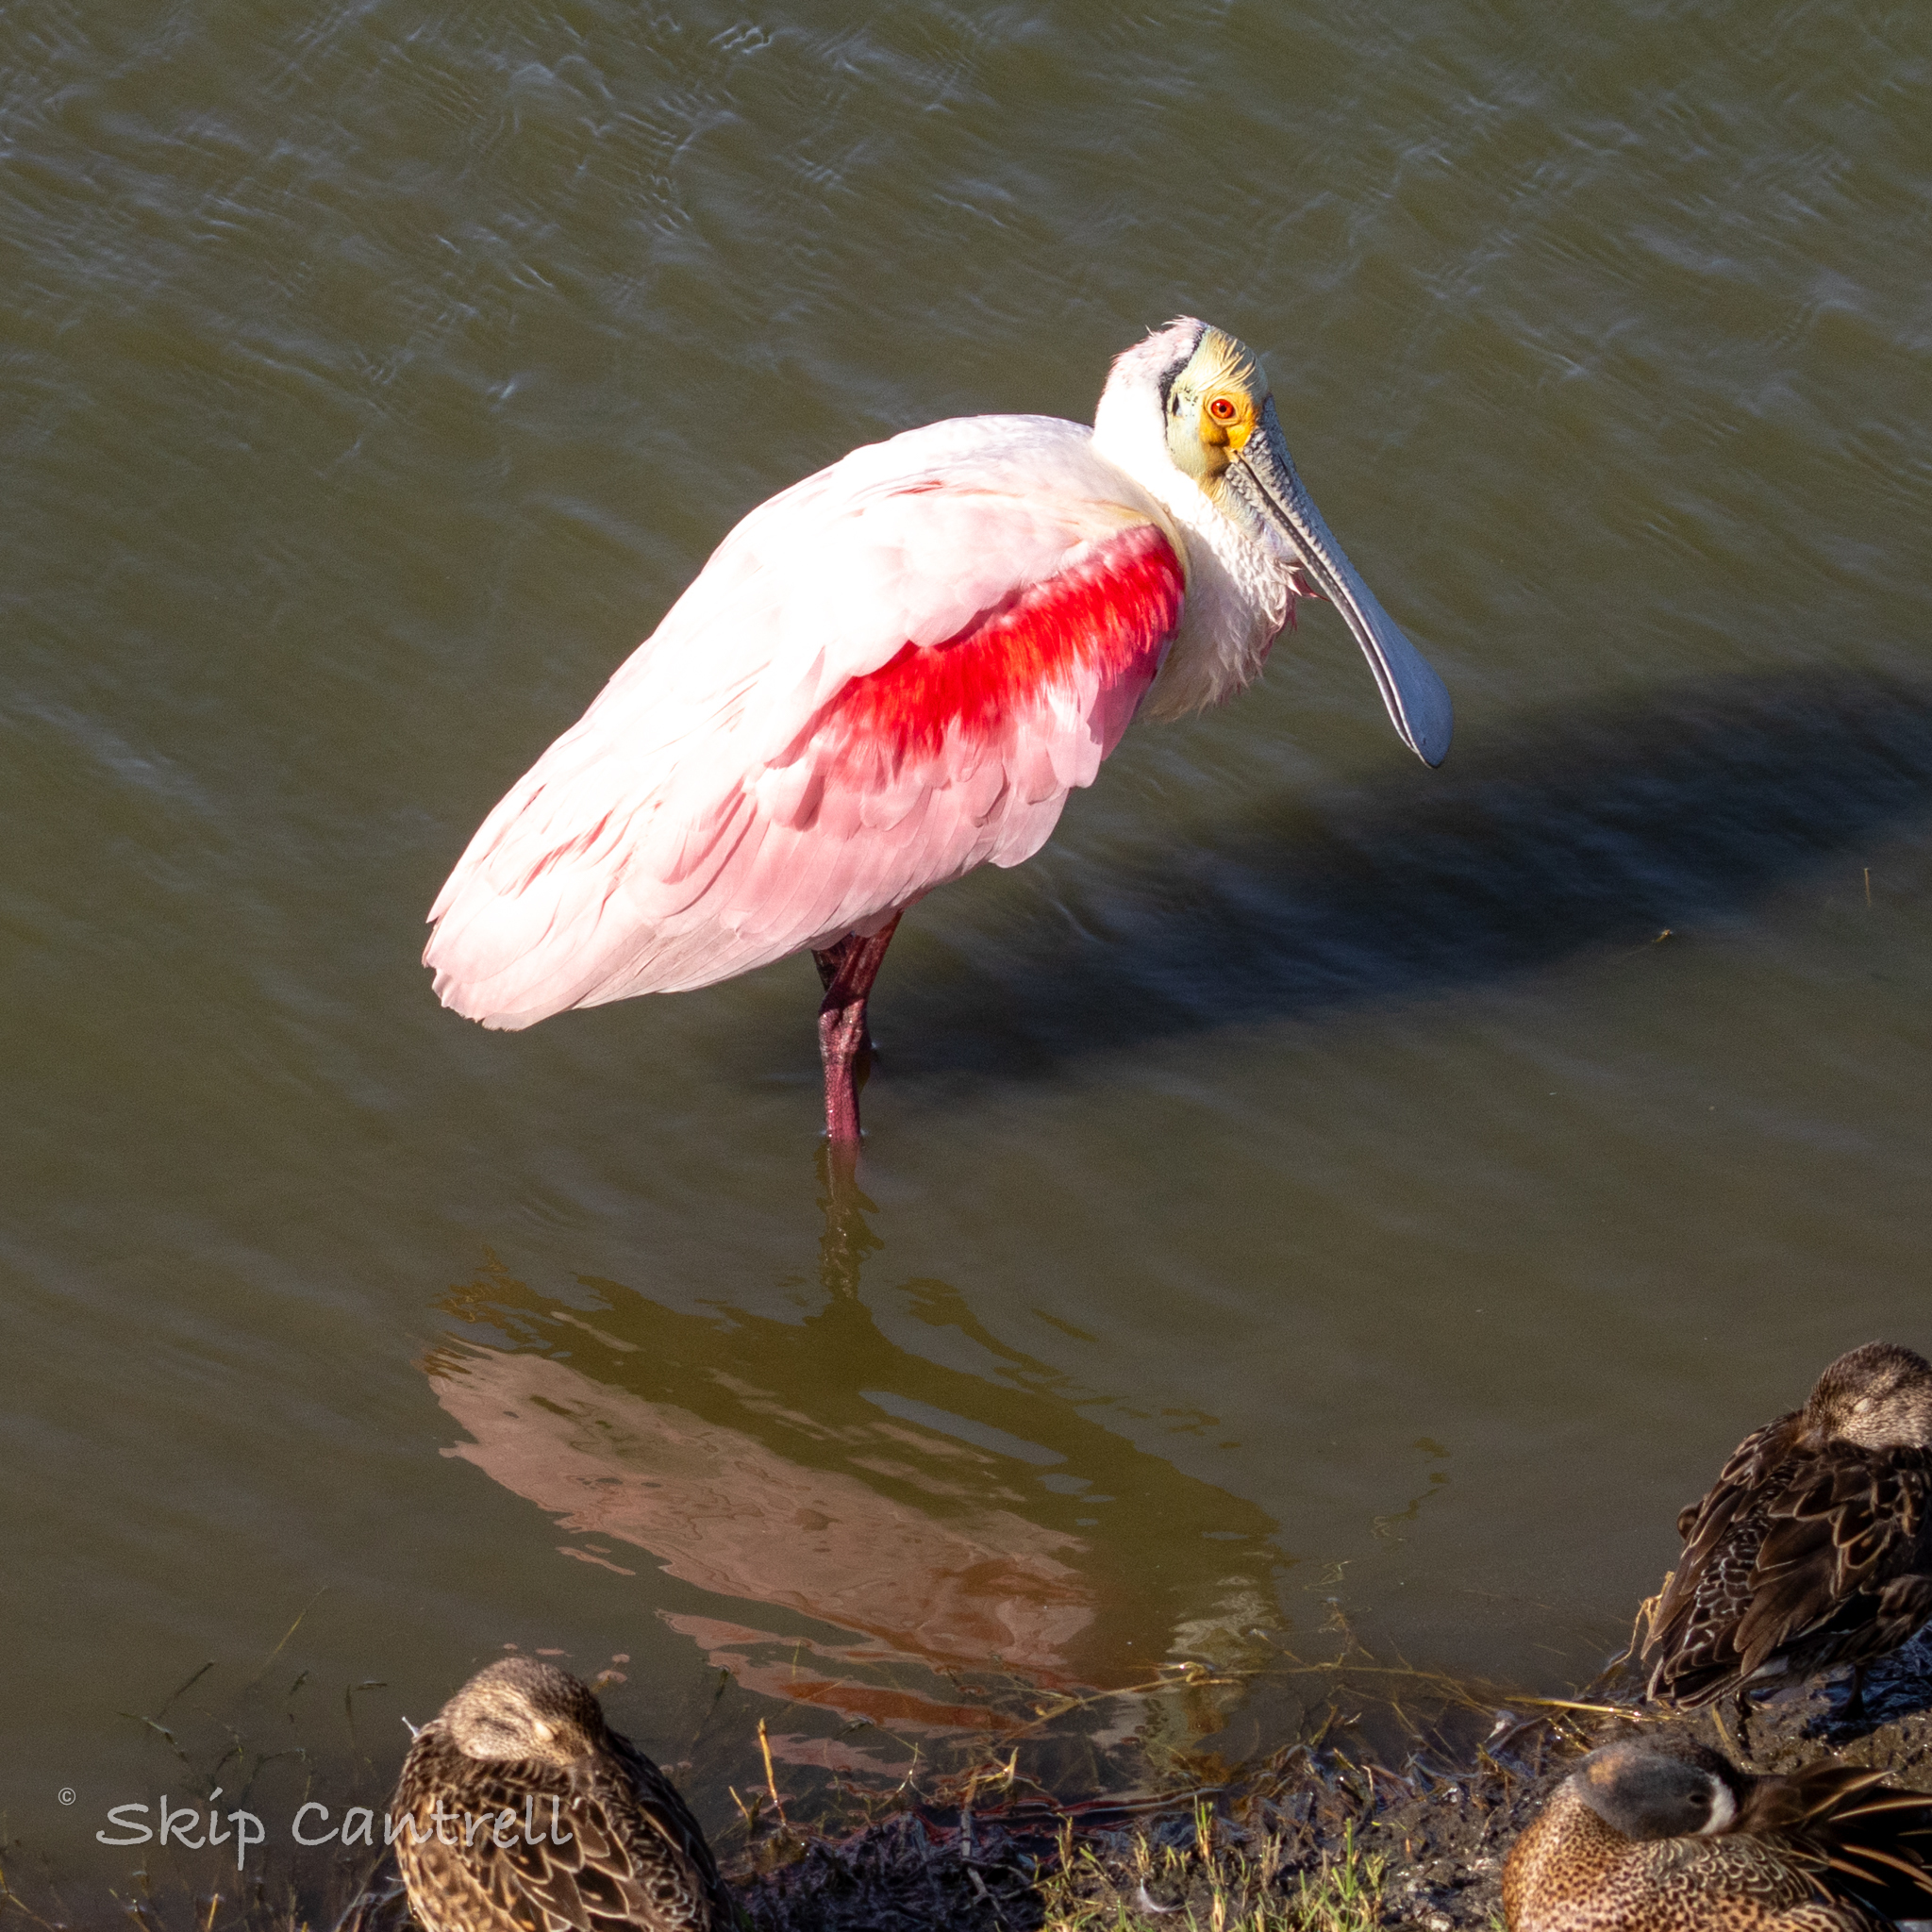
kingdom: Animalia
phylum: Chordata
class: Aves
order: Pelecaniformes
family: Threskiornithidae
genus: Platalea
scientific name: Platalea ajaja
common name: Roseate spoonbill
